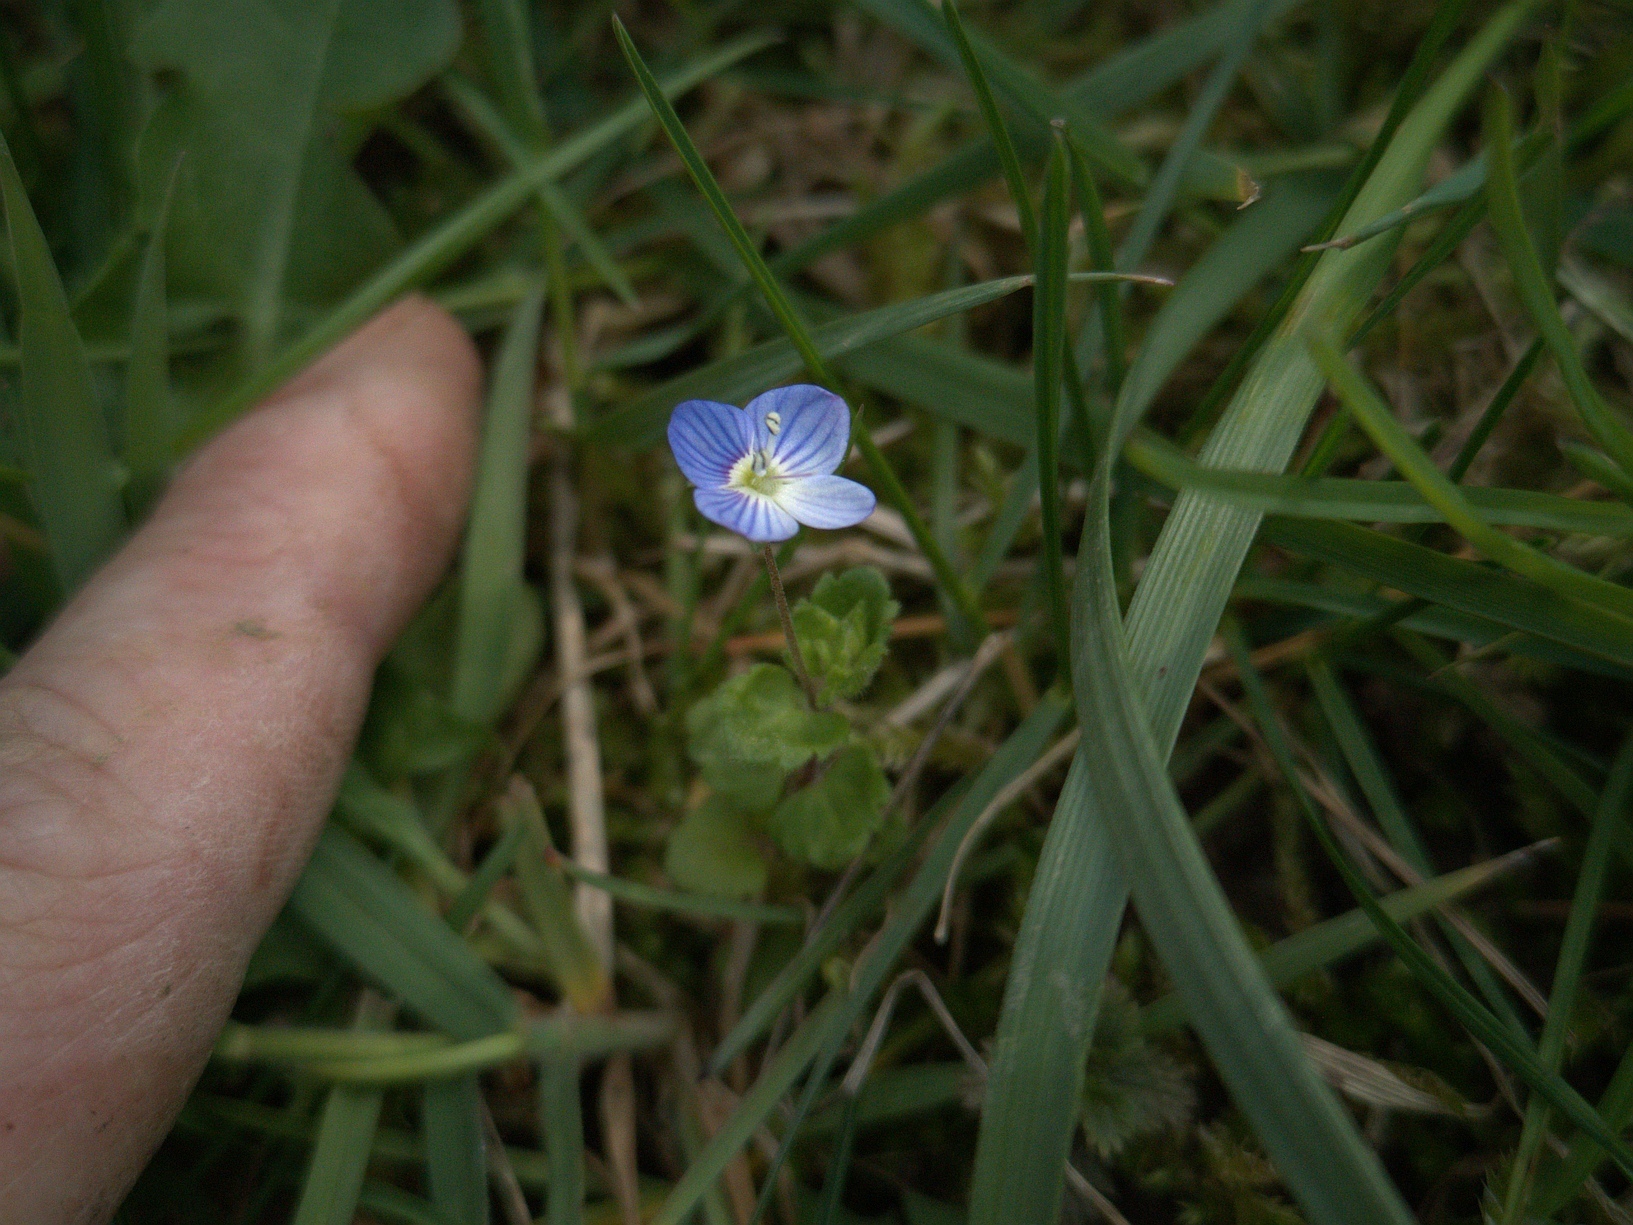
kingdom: Plantae
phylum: Tracheophyta
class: Magnoliopsida
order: Lamiales
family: Plantaginaceae
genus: Veronica
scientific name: Veronica persica
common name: Common field-speedwell
